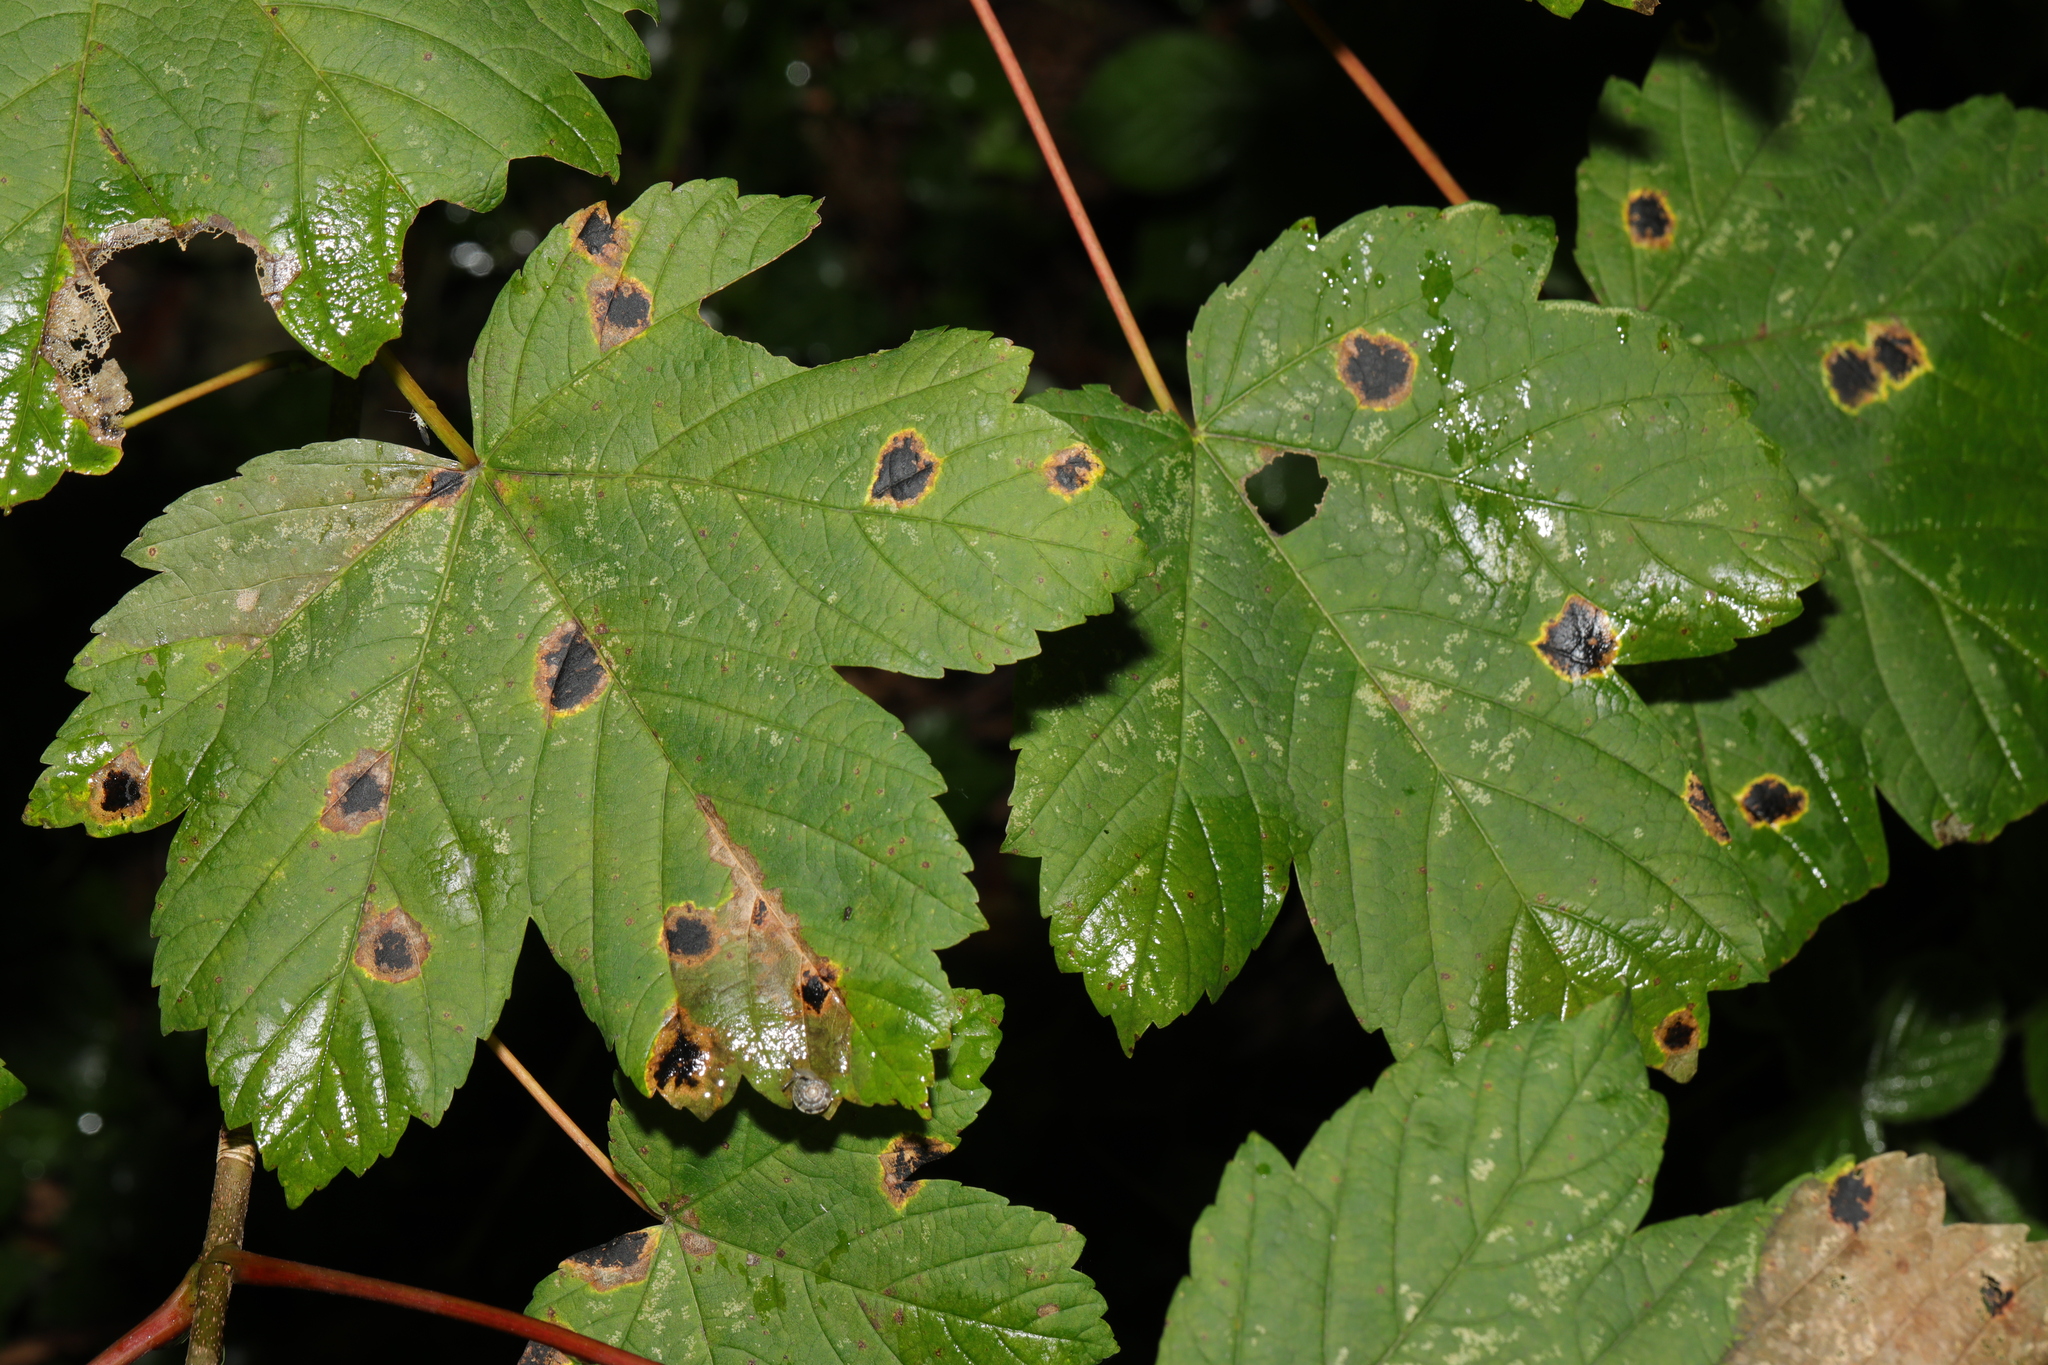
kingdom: Plantae
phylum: Tracheophyta
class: Magnoliopsida
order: Sapindales
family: Sapindaceae
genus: Acer
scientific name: Acer pseudoplatanus
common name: Sycamore
